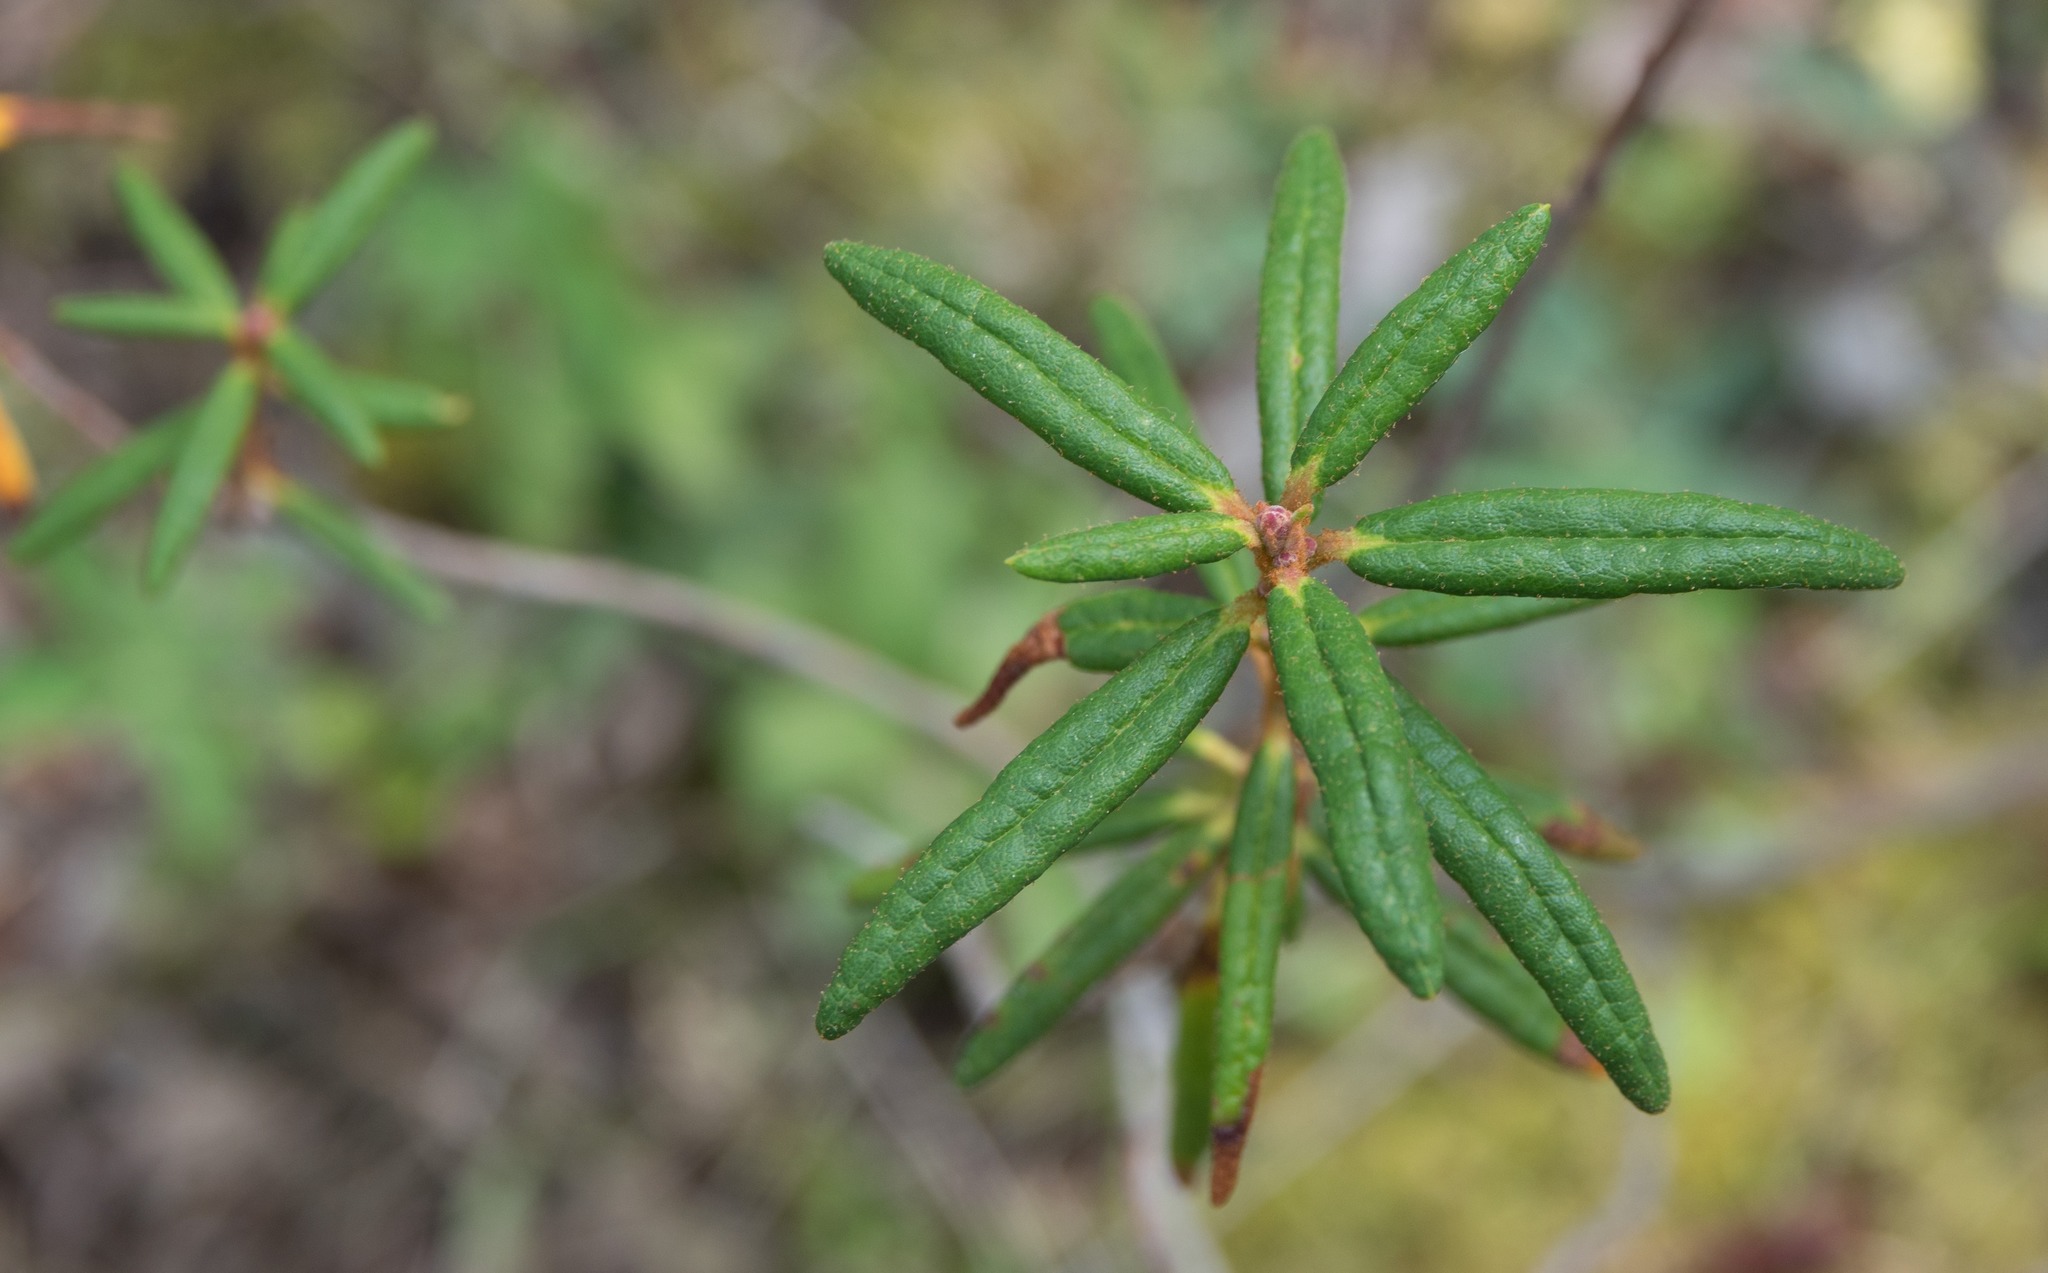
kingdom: Plantae
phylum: Tracheophyta
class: Magnoliopsida
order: Ericales
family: Ericaceae
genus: Rhododendron
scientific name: Rhododendron groenlandicum
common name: Bog labrador tea
